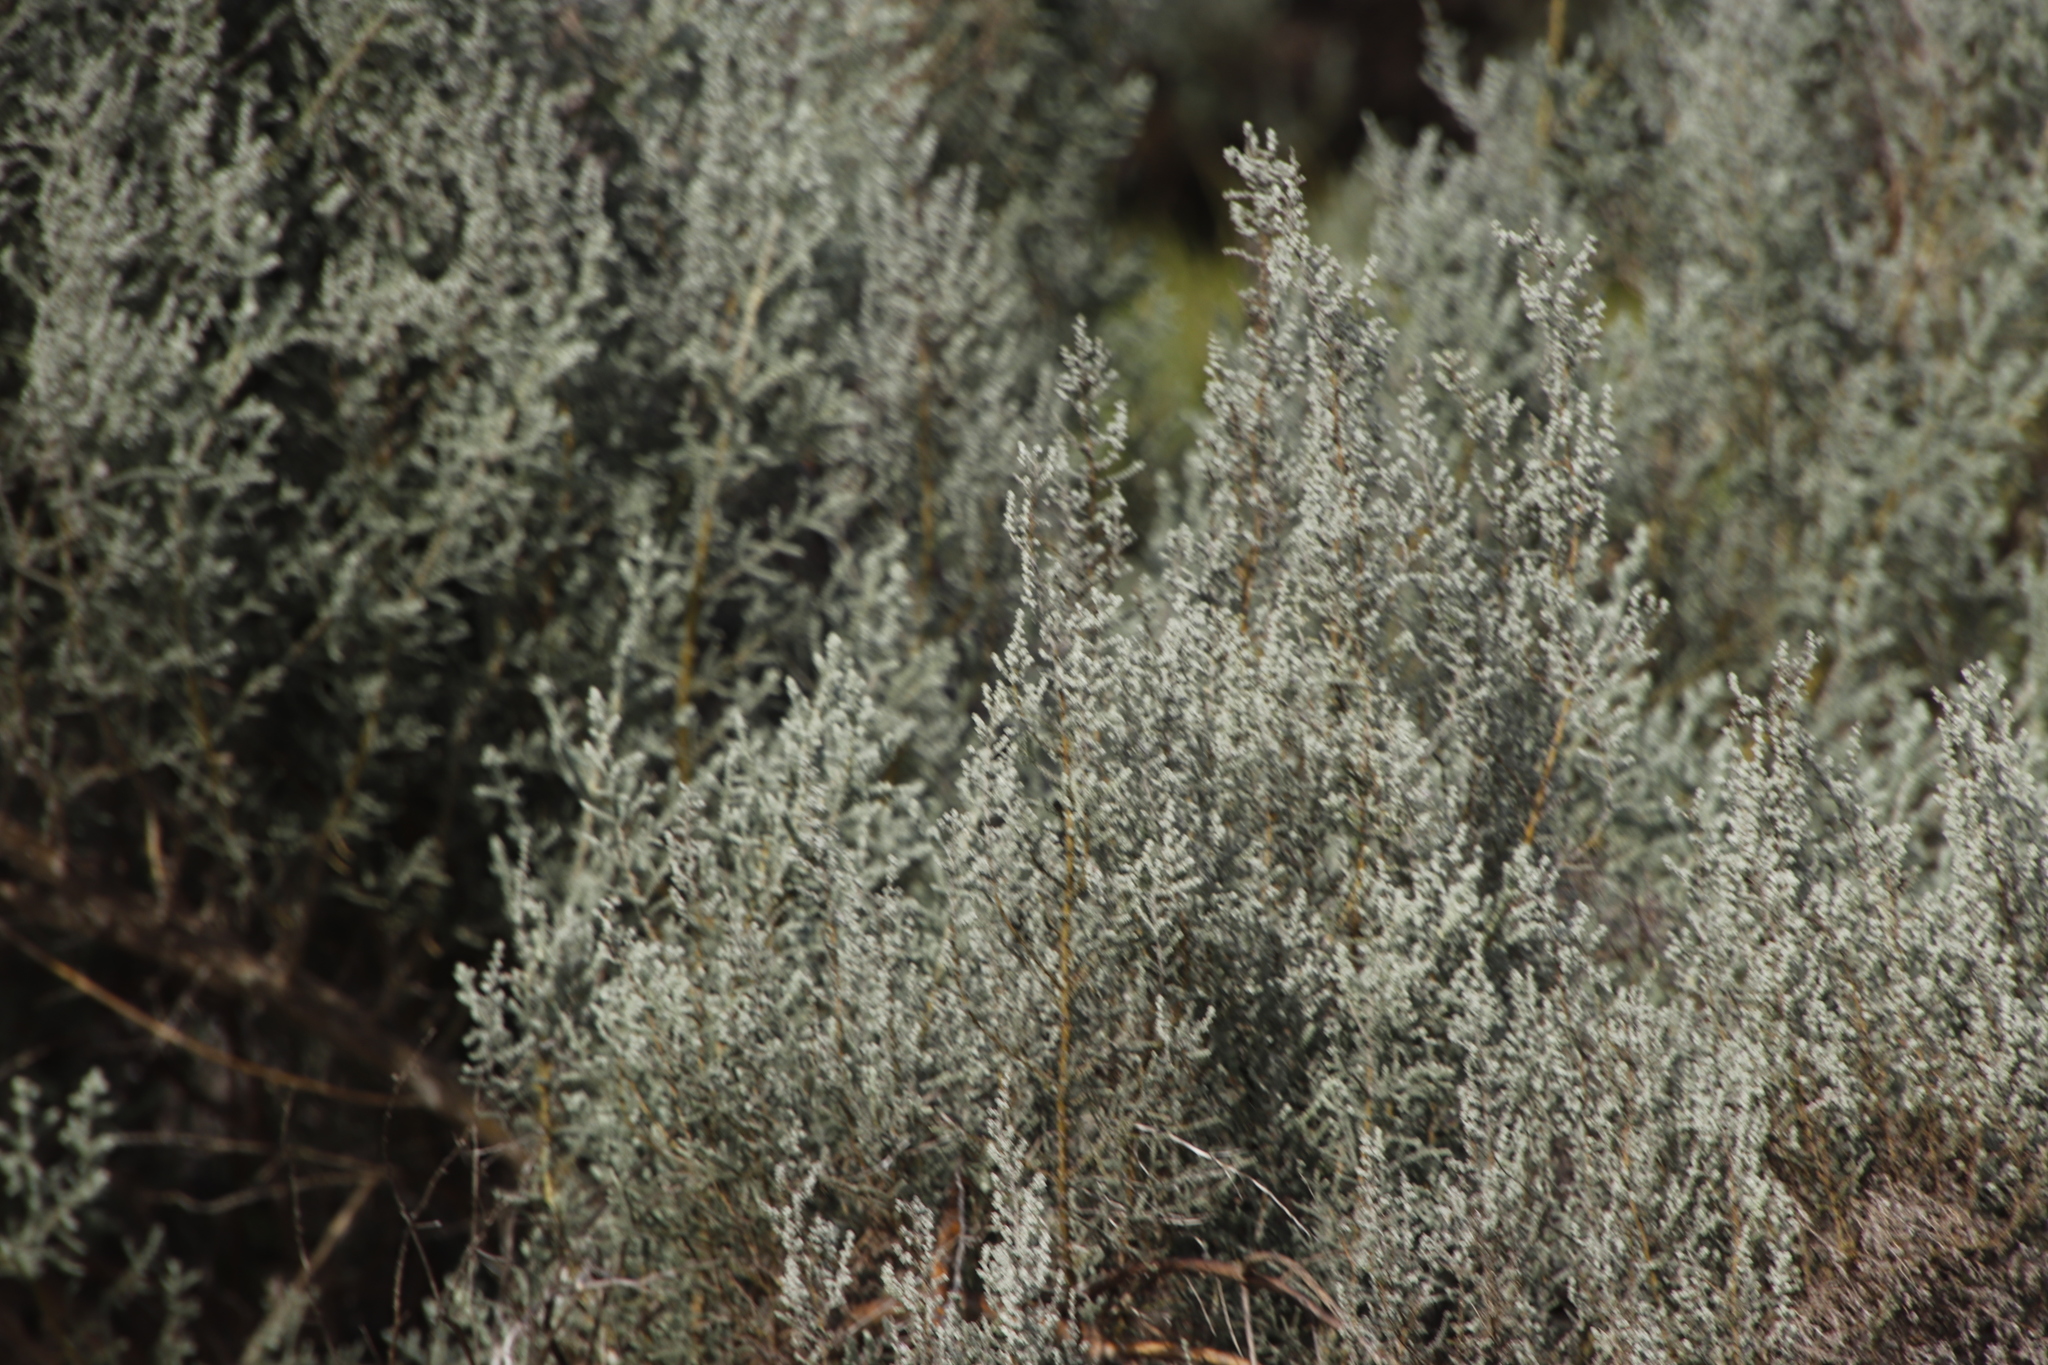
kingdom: Plantae
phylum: Tracheophyta
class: Magnoliopsida
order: Asterales
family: Asteraceae
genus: Dicerothamnus
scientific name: Dicerothamnus rhinocerotis
